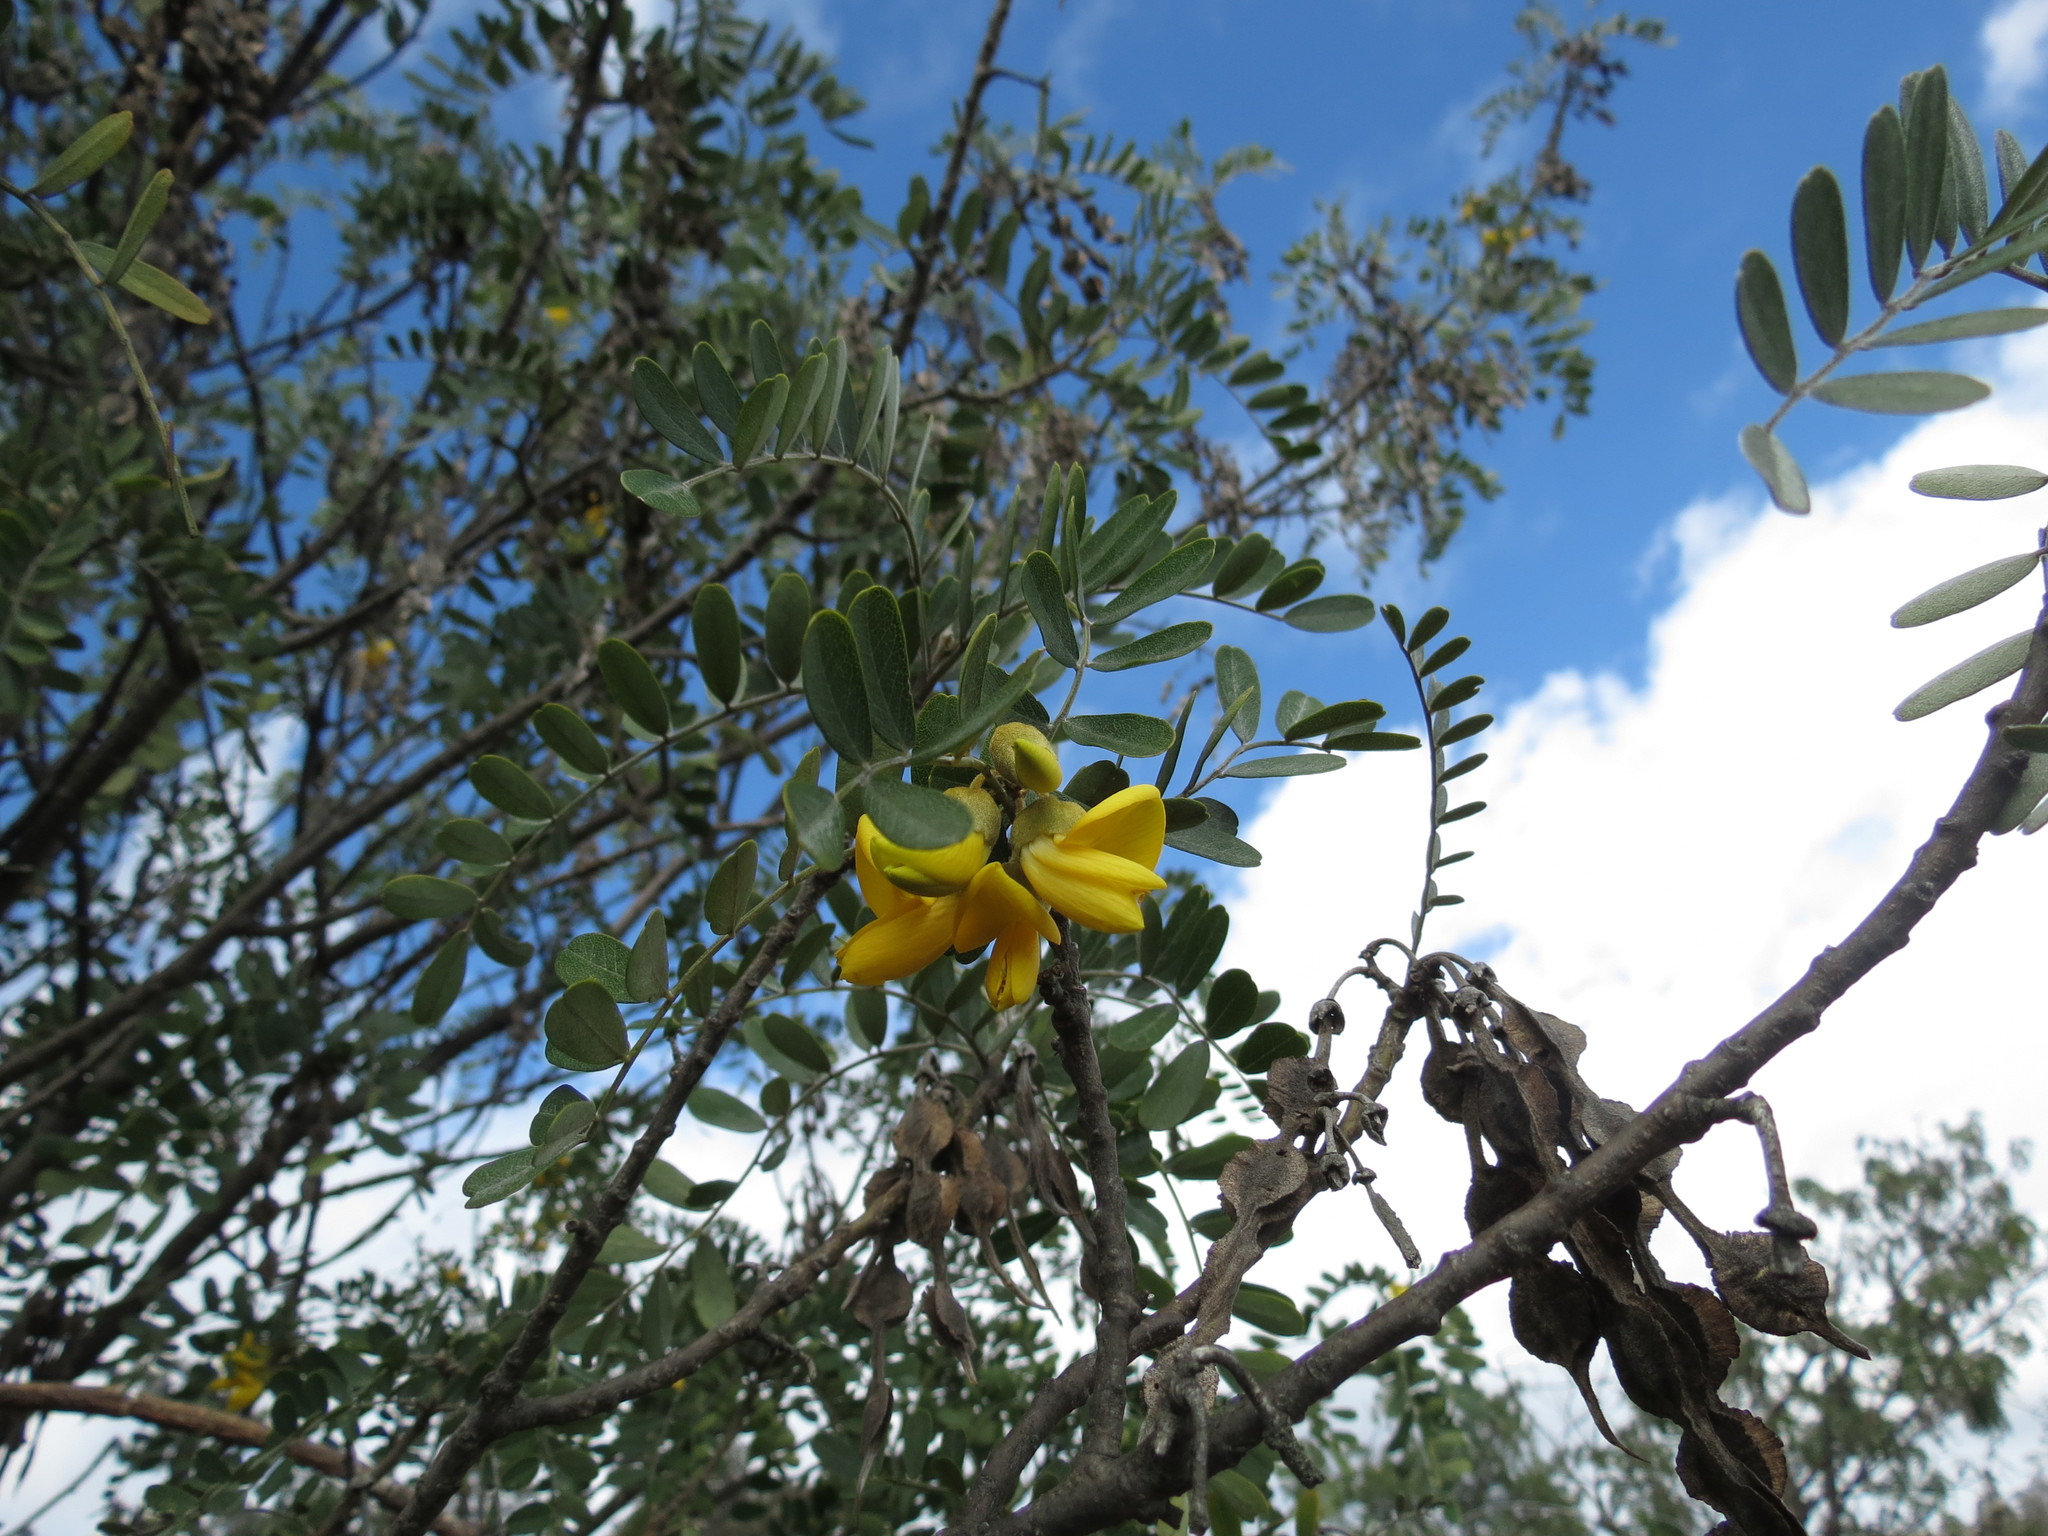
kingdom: Plantae
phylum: Tracheophyta
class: Magnoliopsida
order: Fabales
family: Fabaceae
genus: Sophora
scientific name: Sophora chrysophylla
